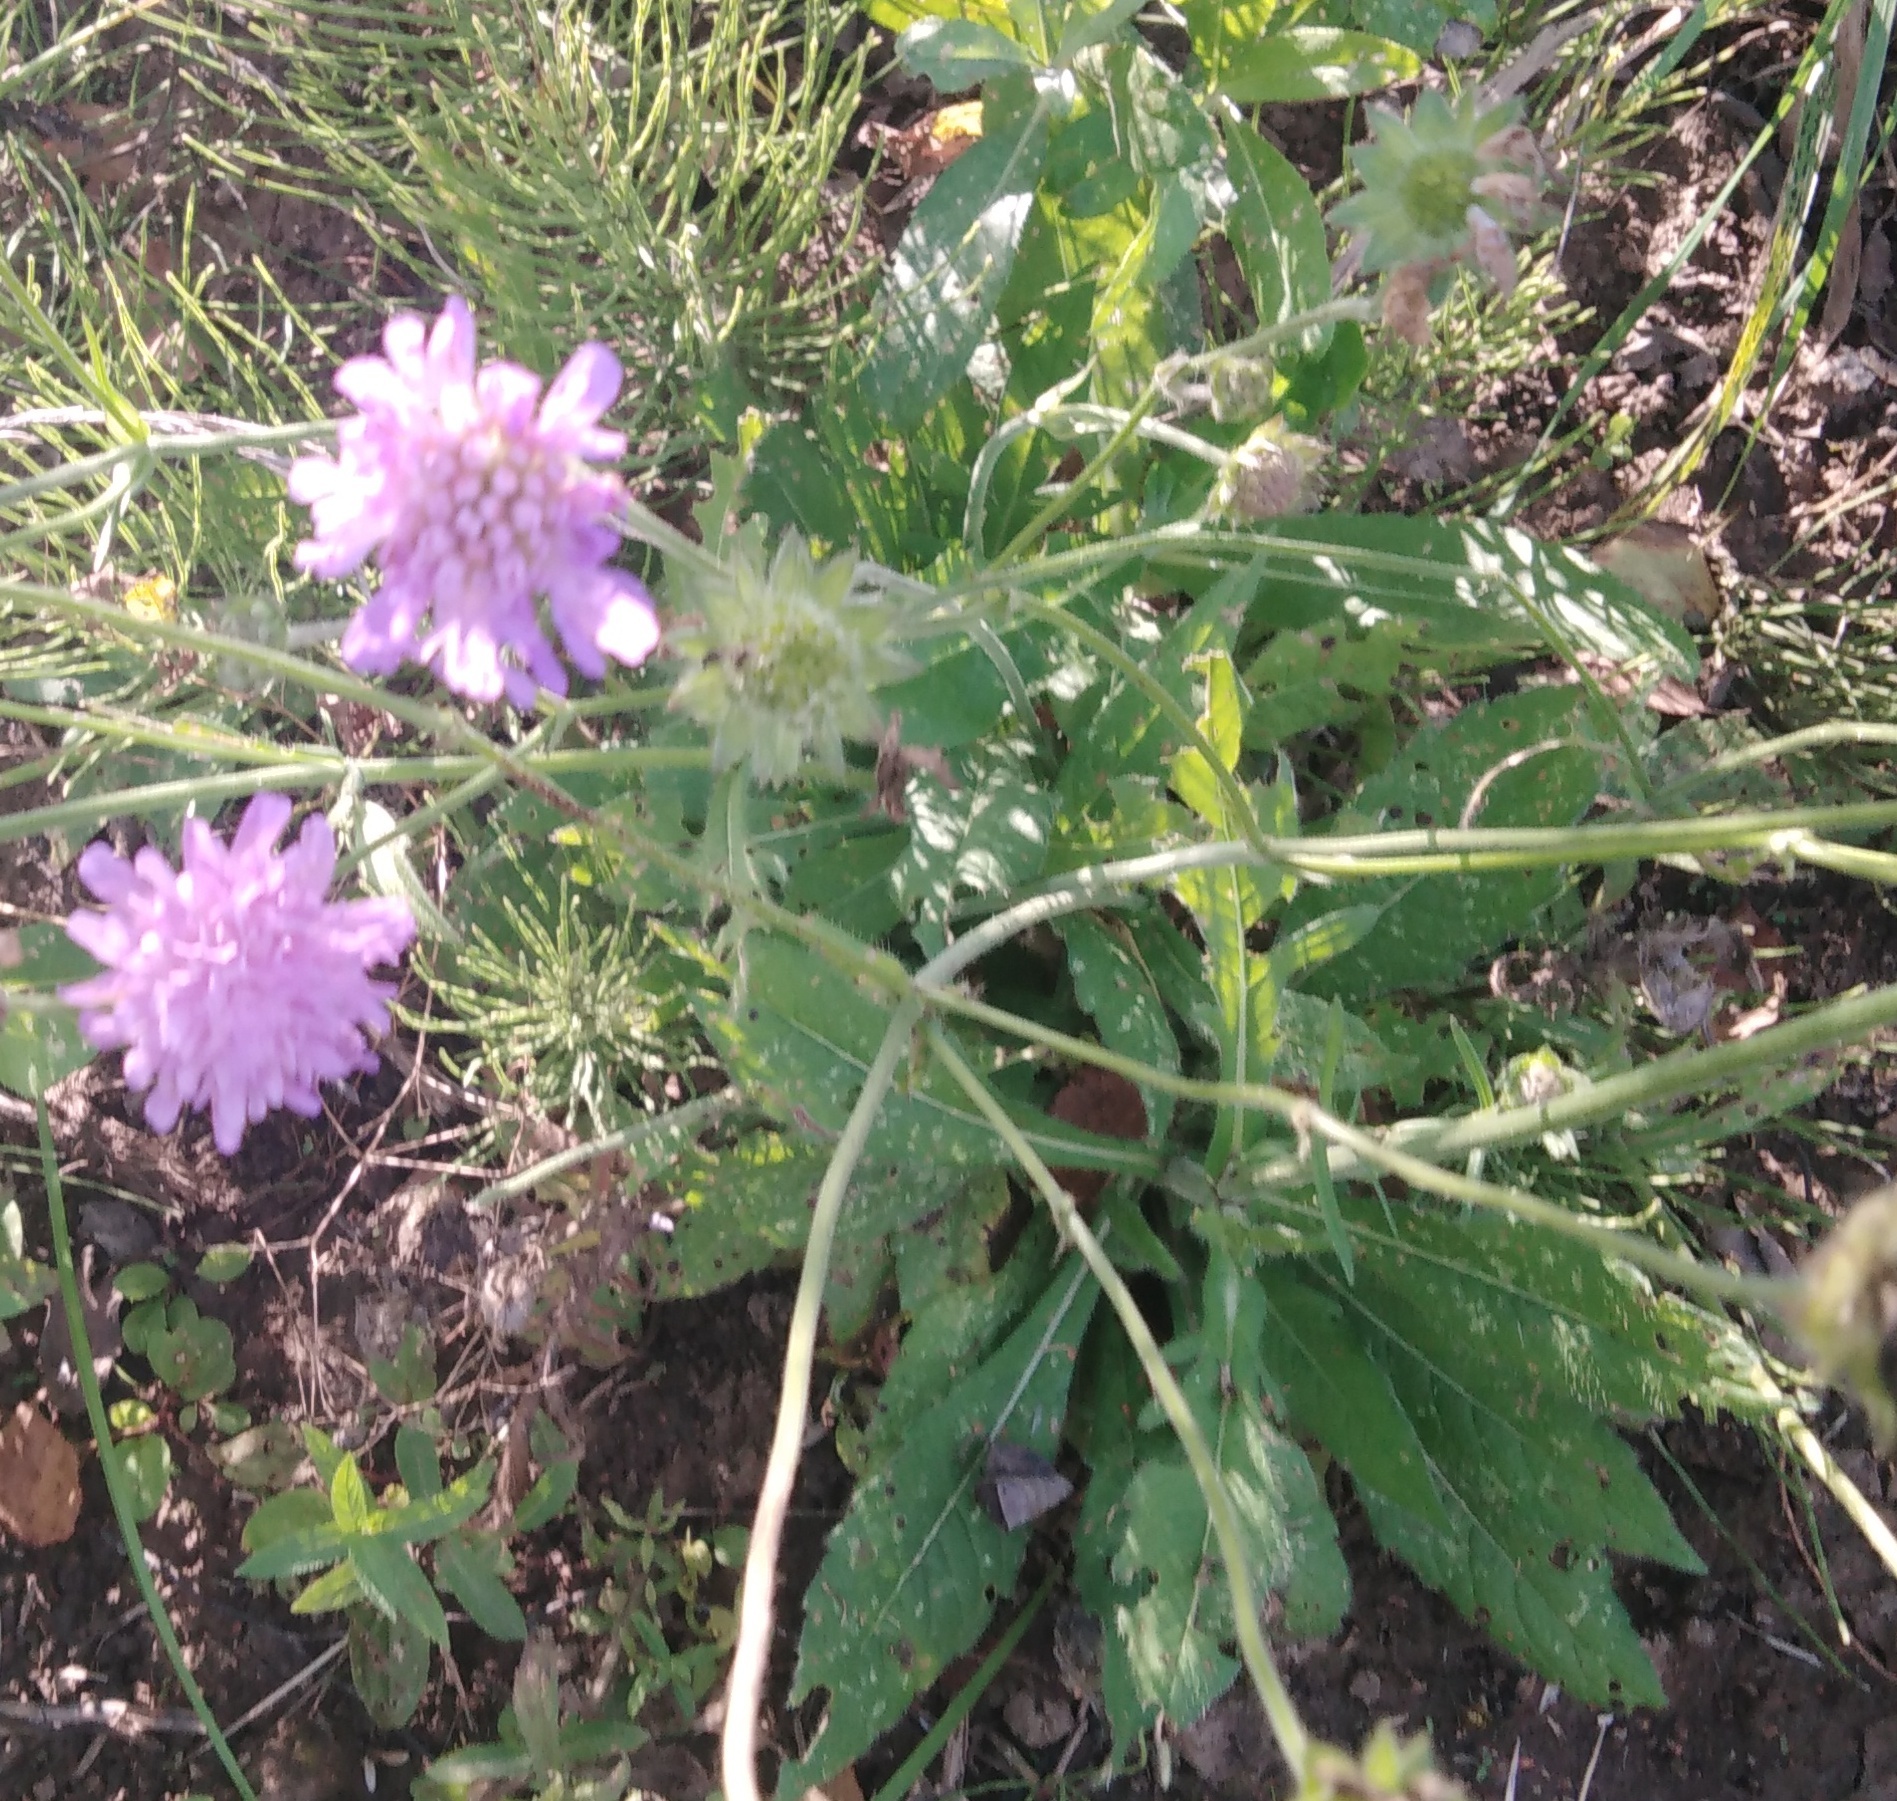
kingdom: Plantae
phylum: Tracheophyta
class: Magnoliopsida
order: Dipsacales
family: Caprifoliaceae
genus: Knautia
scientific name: Knautia arvensis
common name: Field scabiosa
